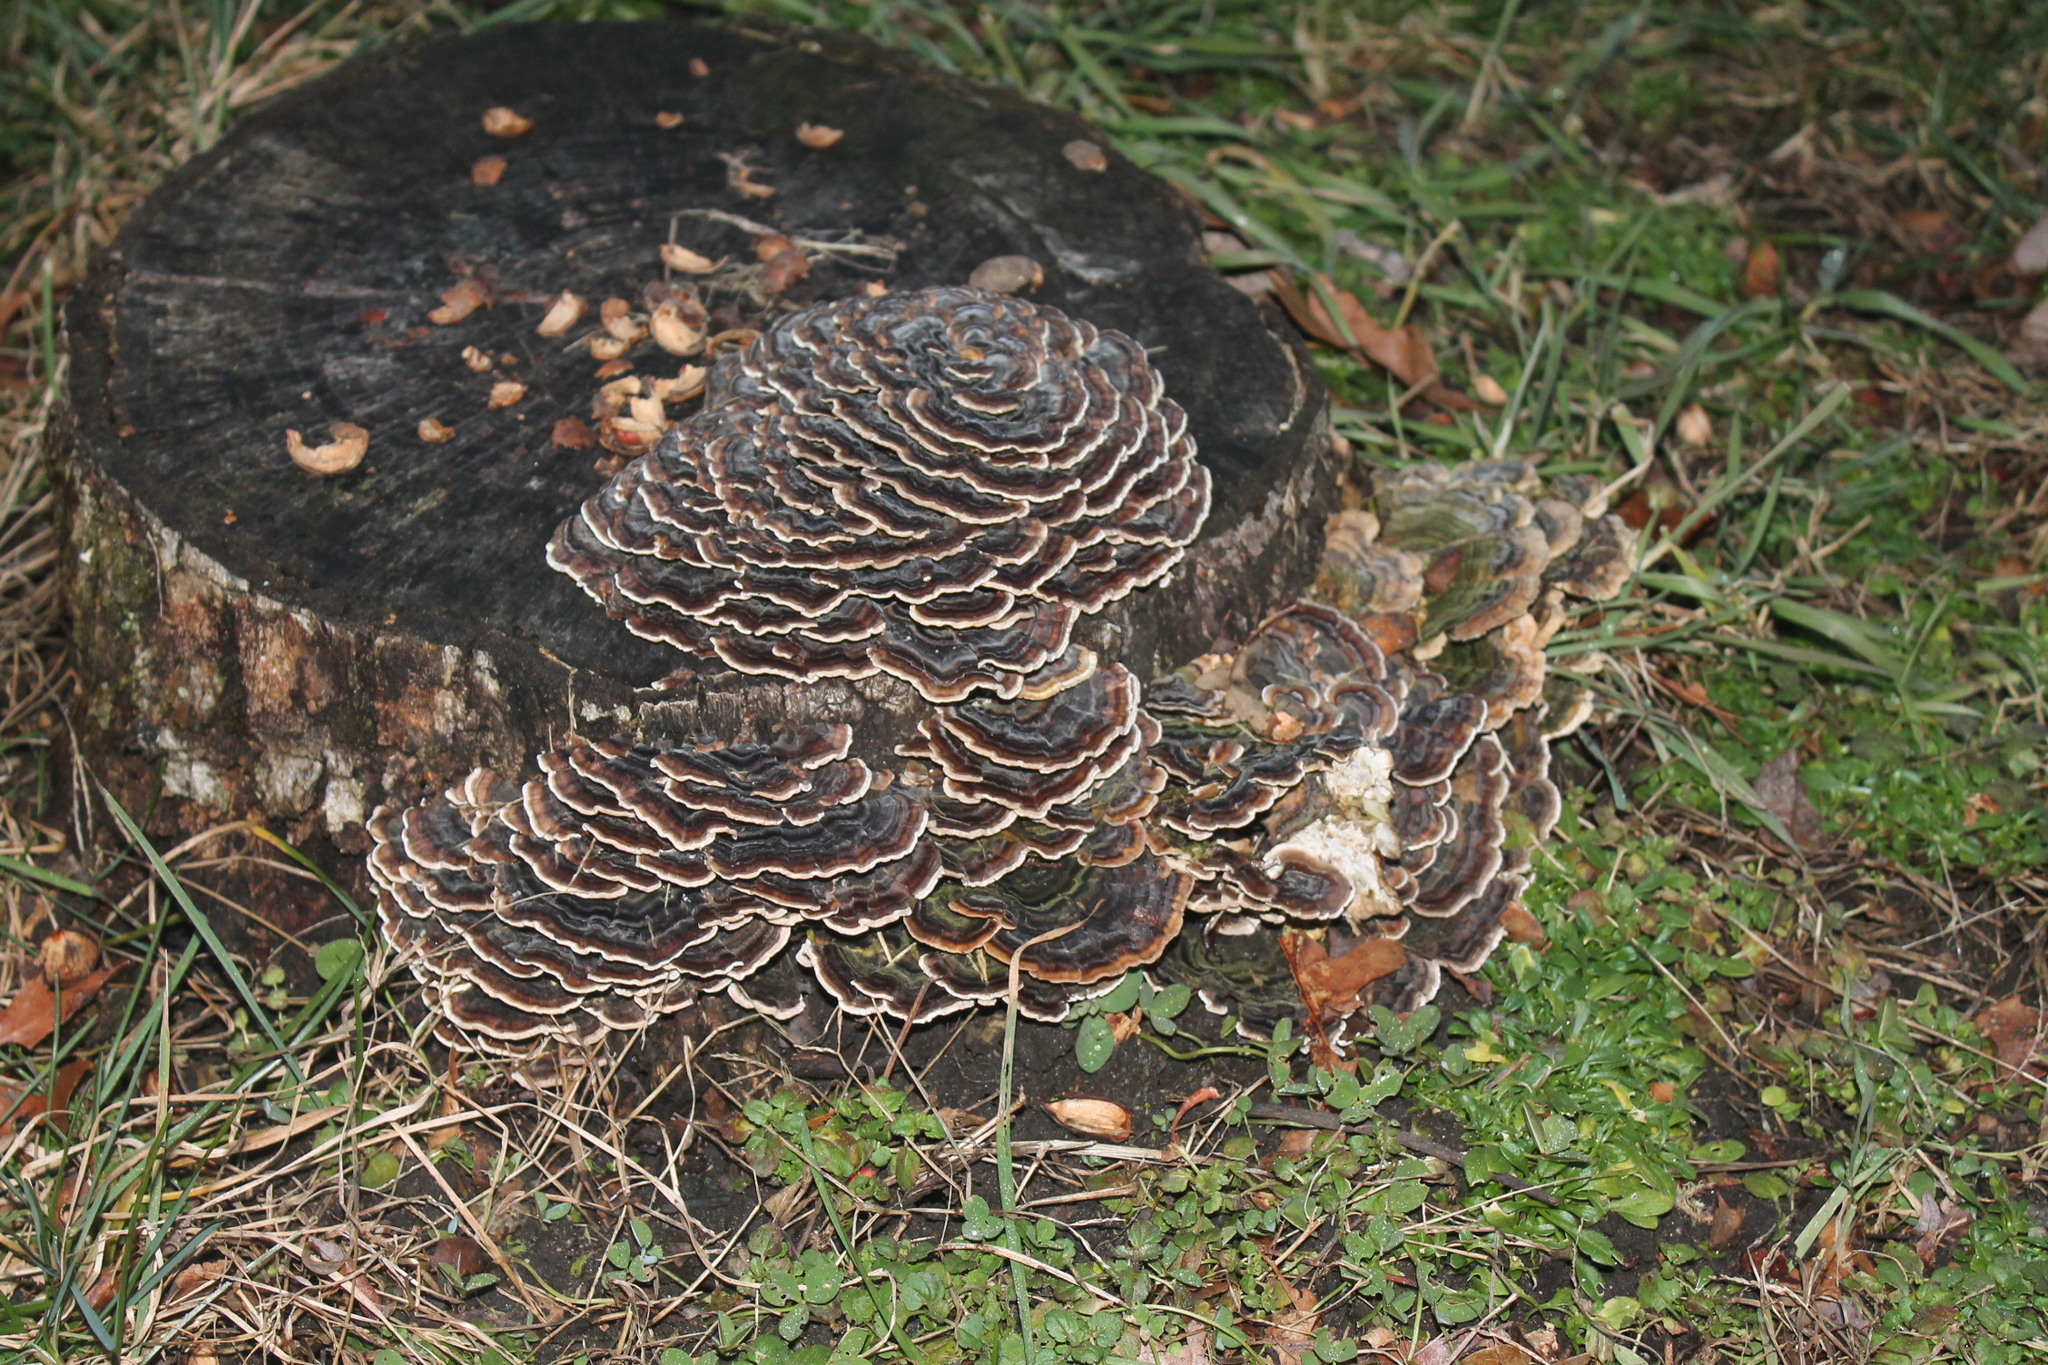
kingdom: Fungi
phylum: Basidiomycota
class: Agaricomycetes
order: Polyporales
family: Polyporaceae
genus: Trametes
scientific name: Trametes versicolor
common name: Turkeytail
